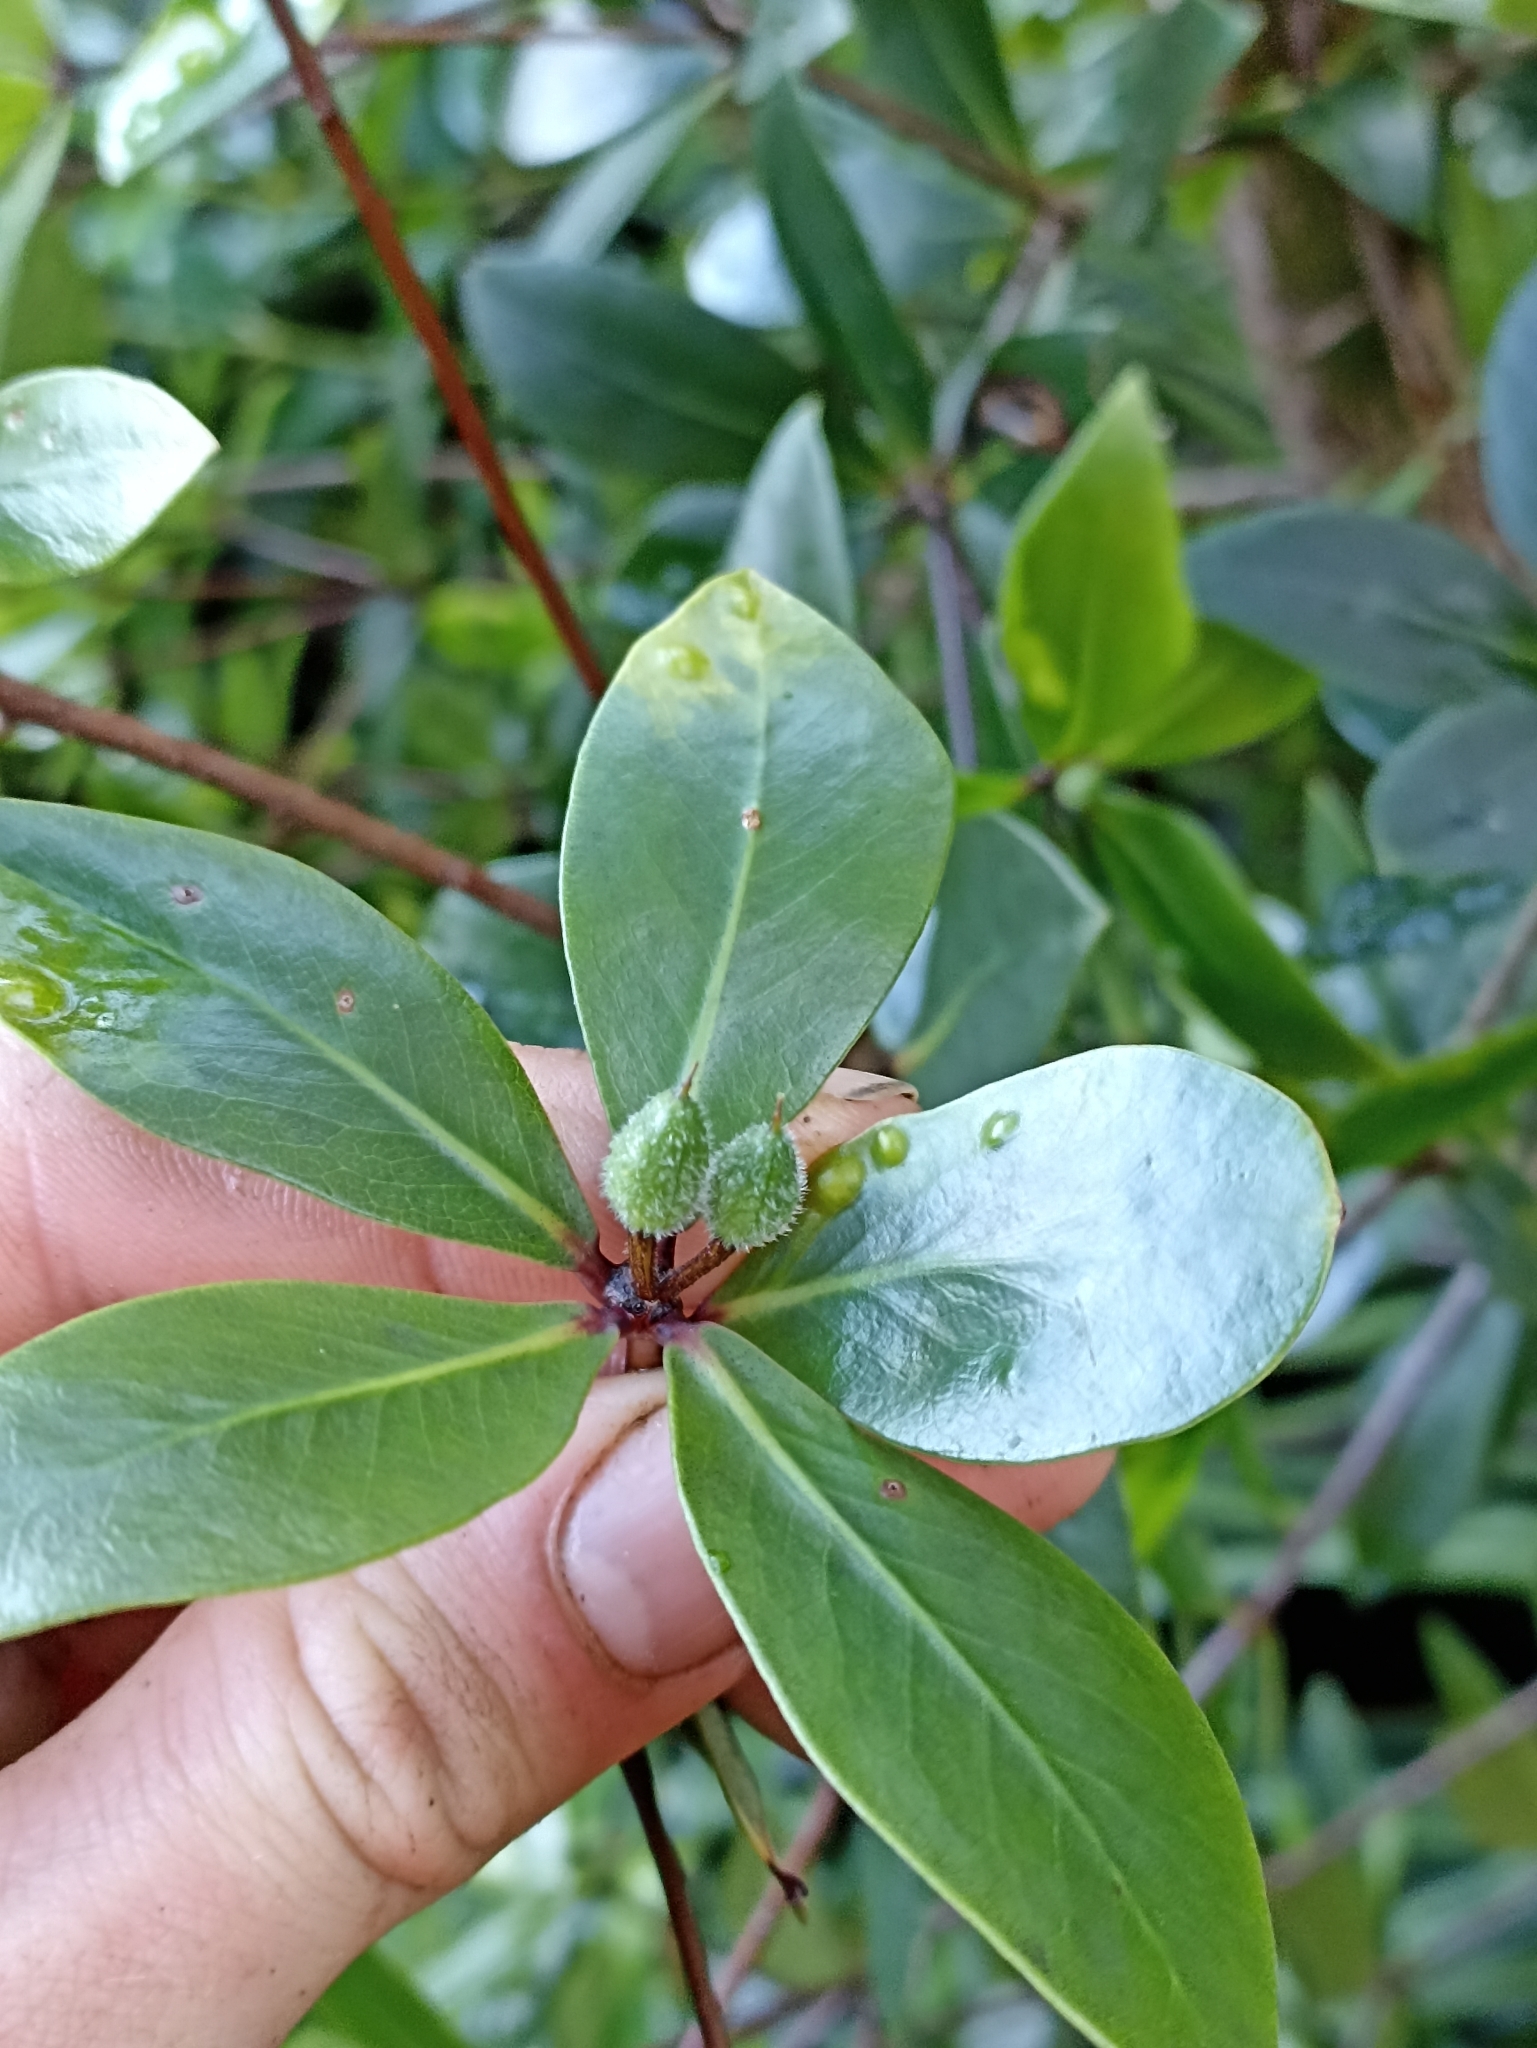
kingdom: Plantae
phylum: Tracheophyta
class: Magnoliopsida
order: Apiales
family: Pittosporaceae
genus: Pittosporum
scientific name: Pittosporum cornifolium
